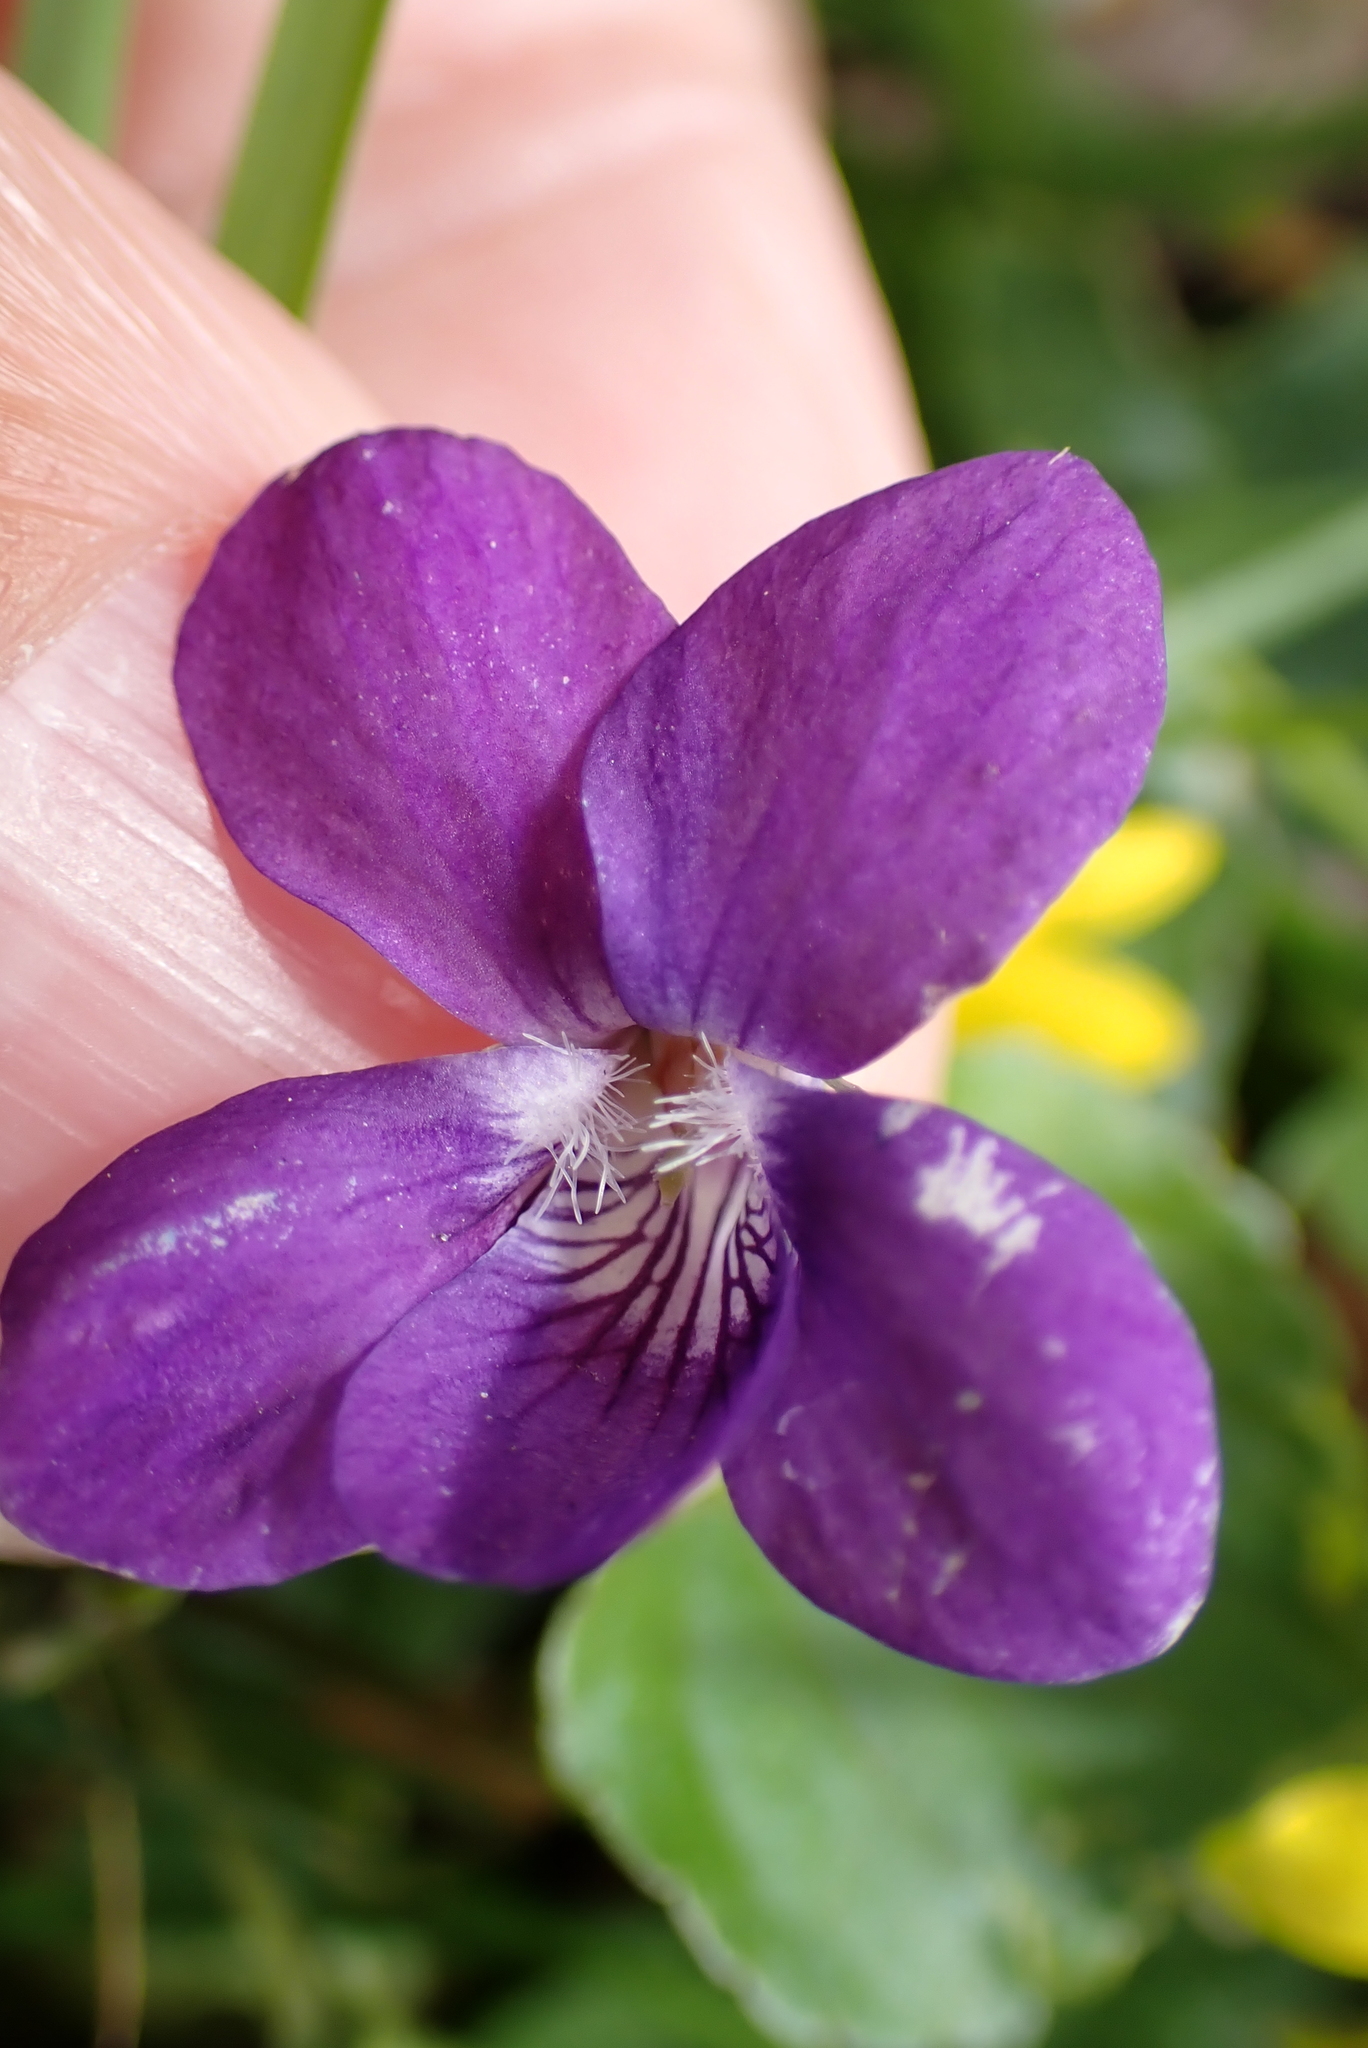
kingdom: Plantae
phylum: Tracheophyta
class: Magnoliopsida
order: Malpighiales
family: Violaceae
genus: Viola
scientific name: Viola riviniana
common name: Common dog-violet
